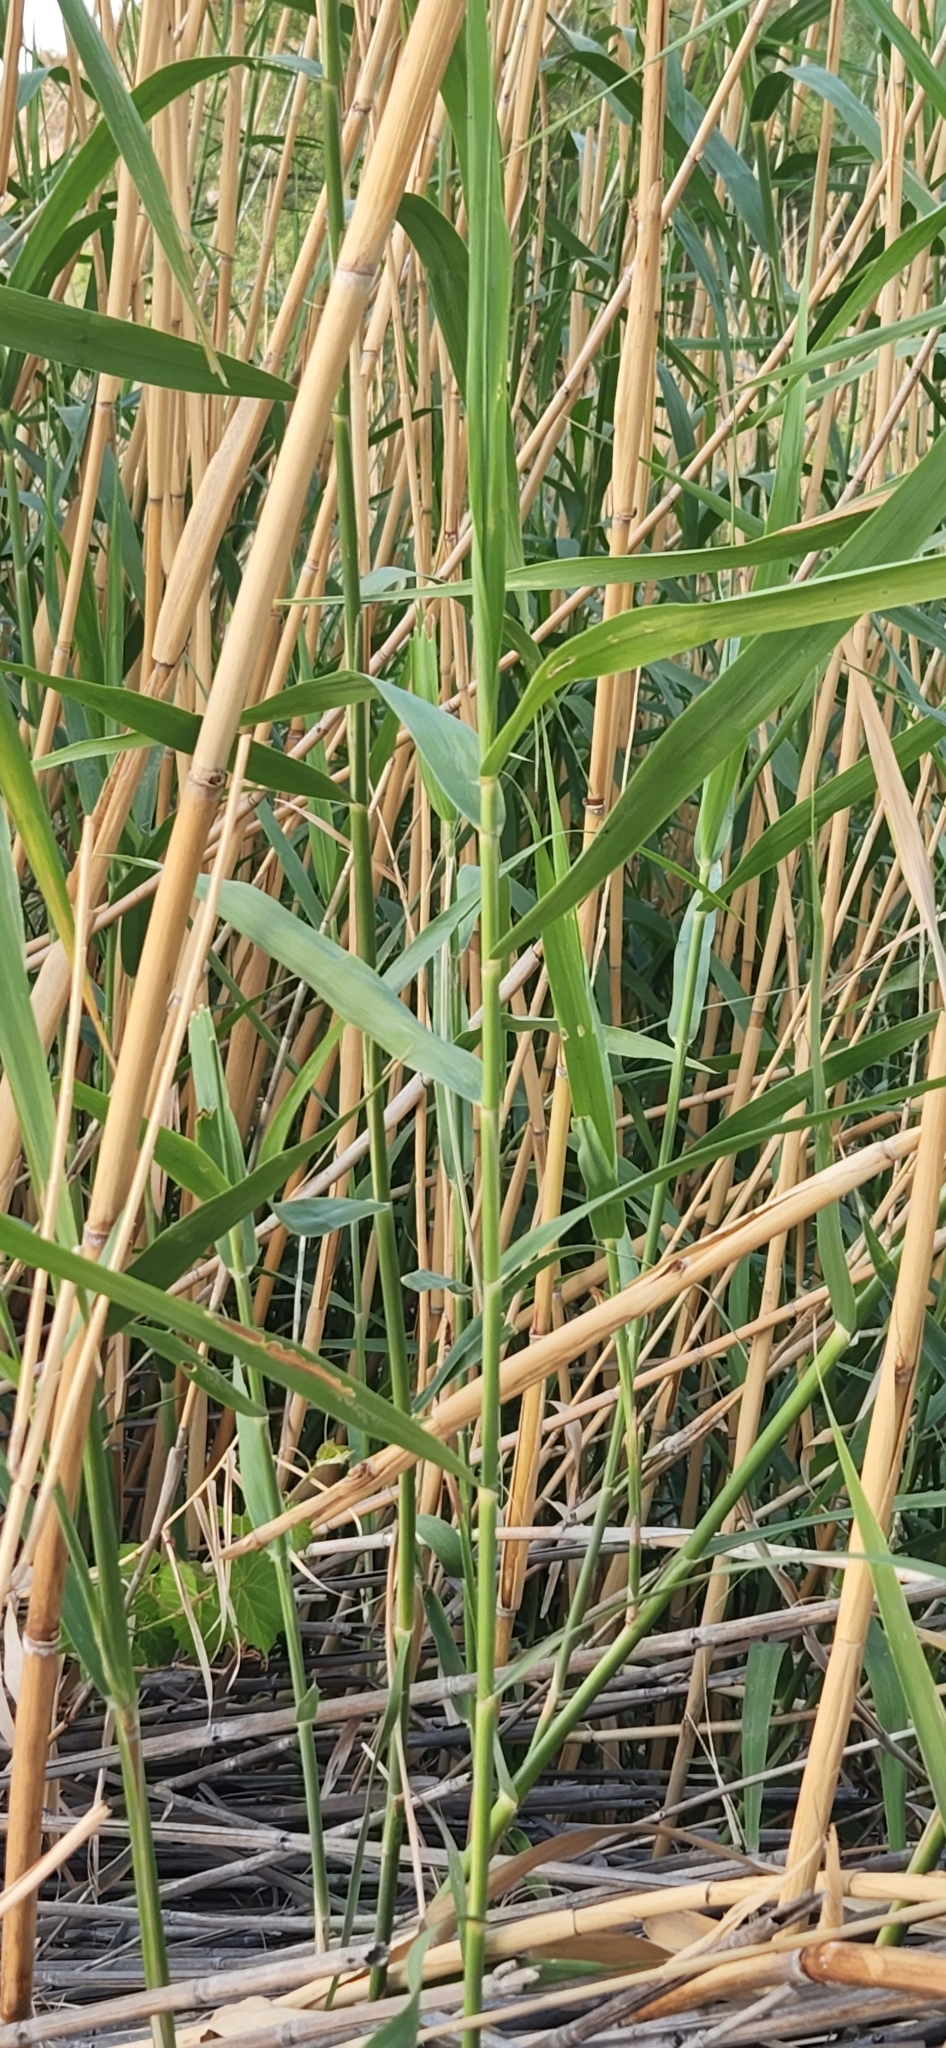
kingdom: Plantae
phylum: Tracheophyta
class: Liliopsida
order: Poales
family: Poaceae
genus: Phragmites
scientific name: Phragmites australis
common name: Common reed
